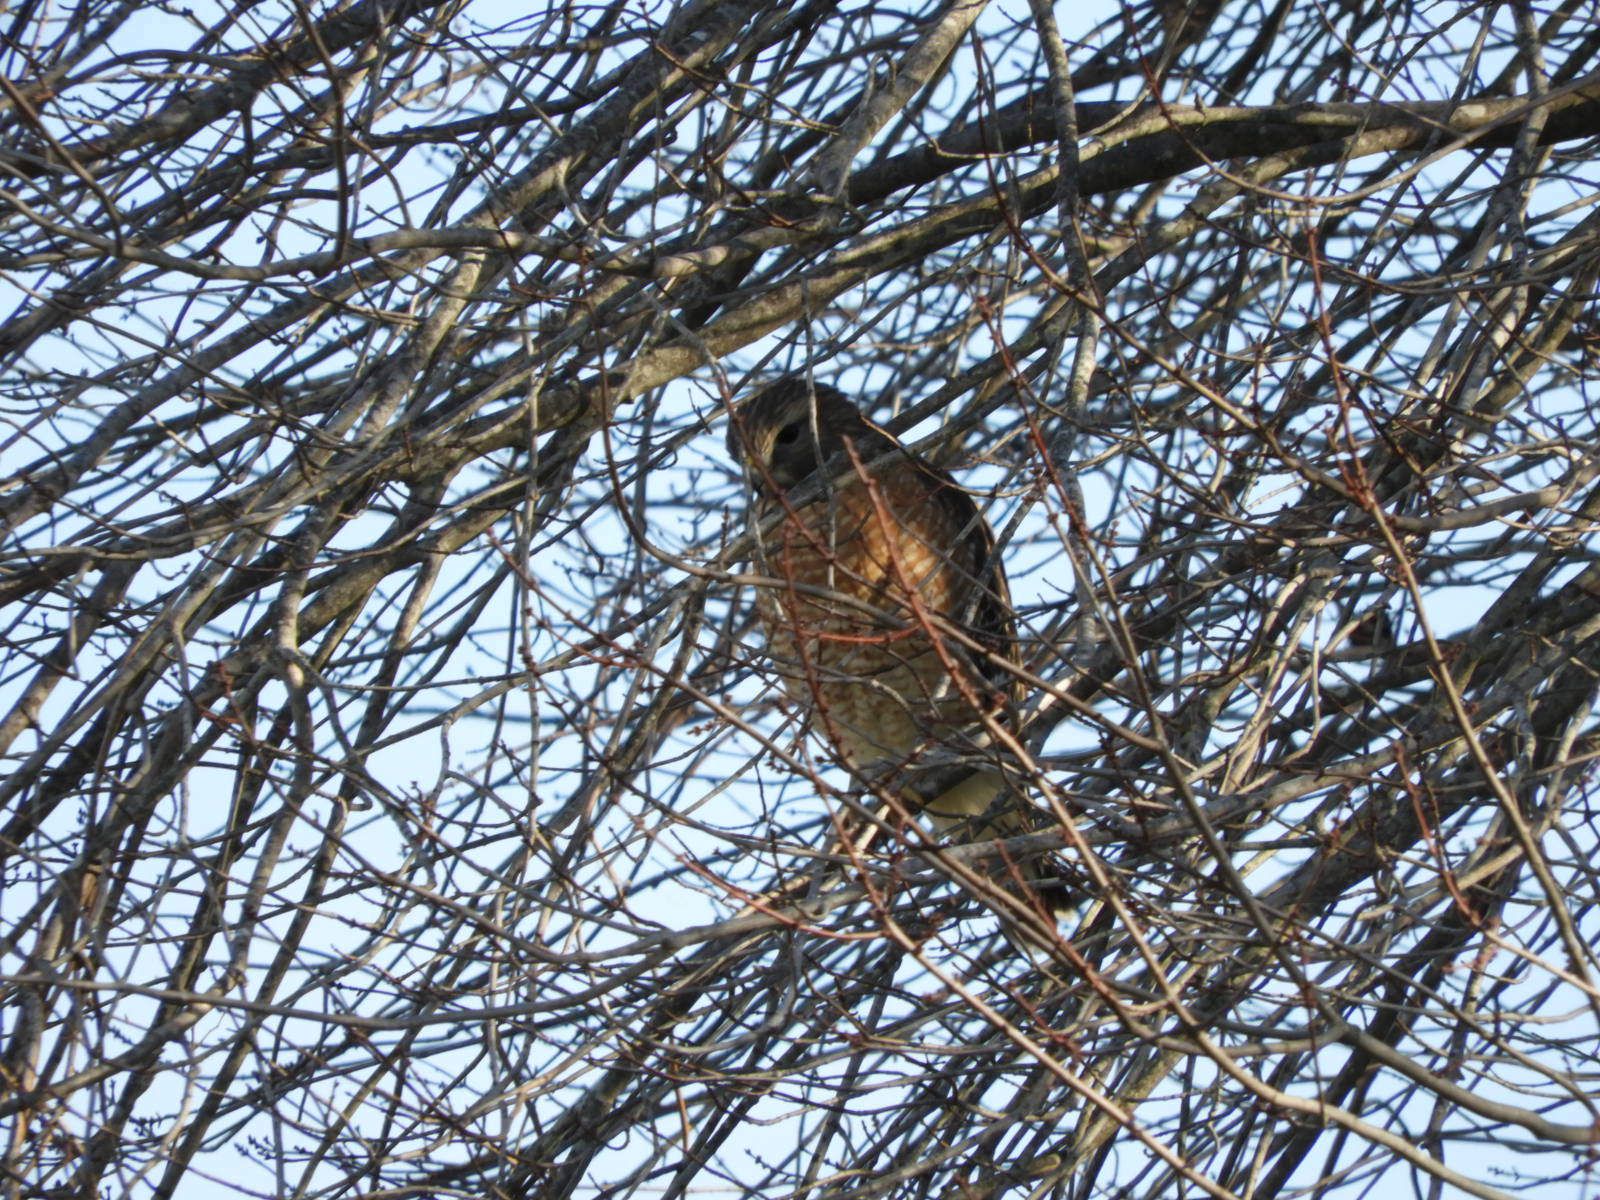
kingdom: Animalia
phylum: Chordata
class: Aves
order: Accipitriformes
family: Accipitridae
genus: Buteo
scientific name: Buteo lineatus
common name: Red-shouldered hawk
